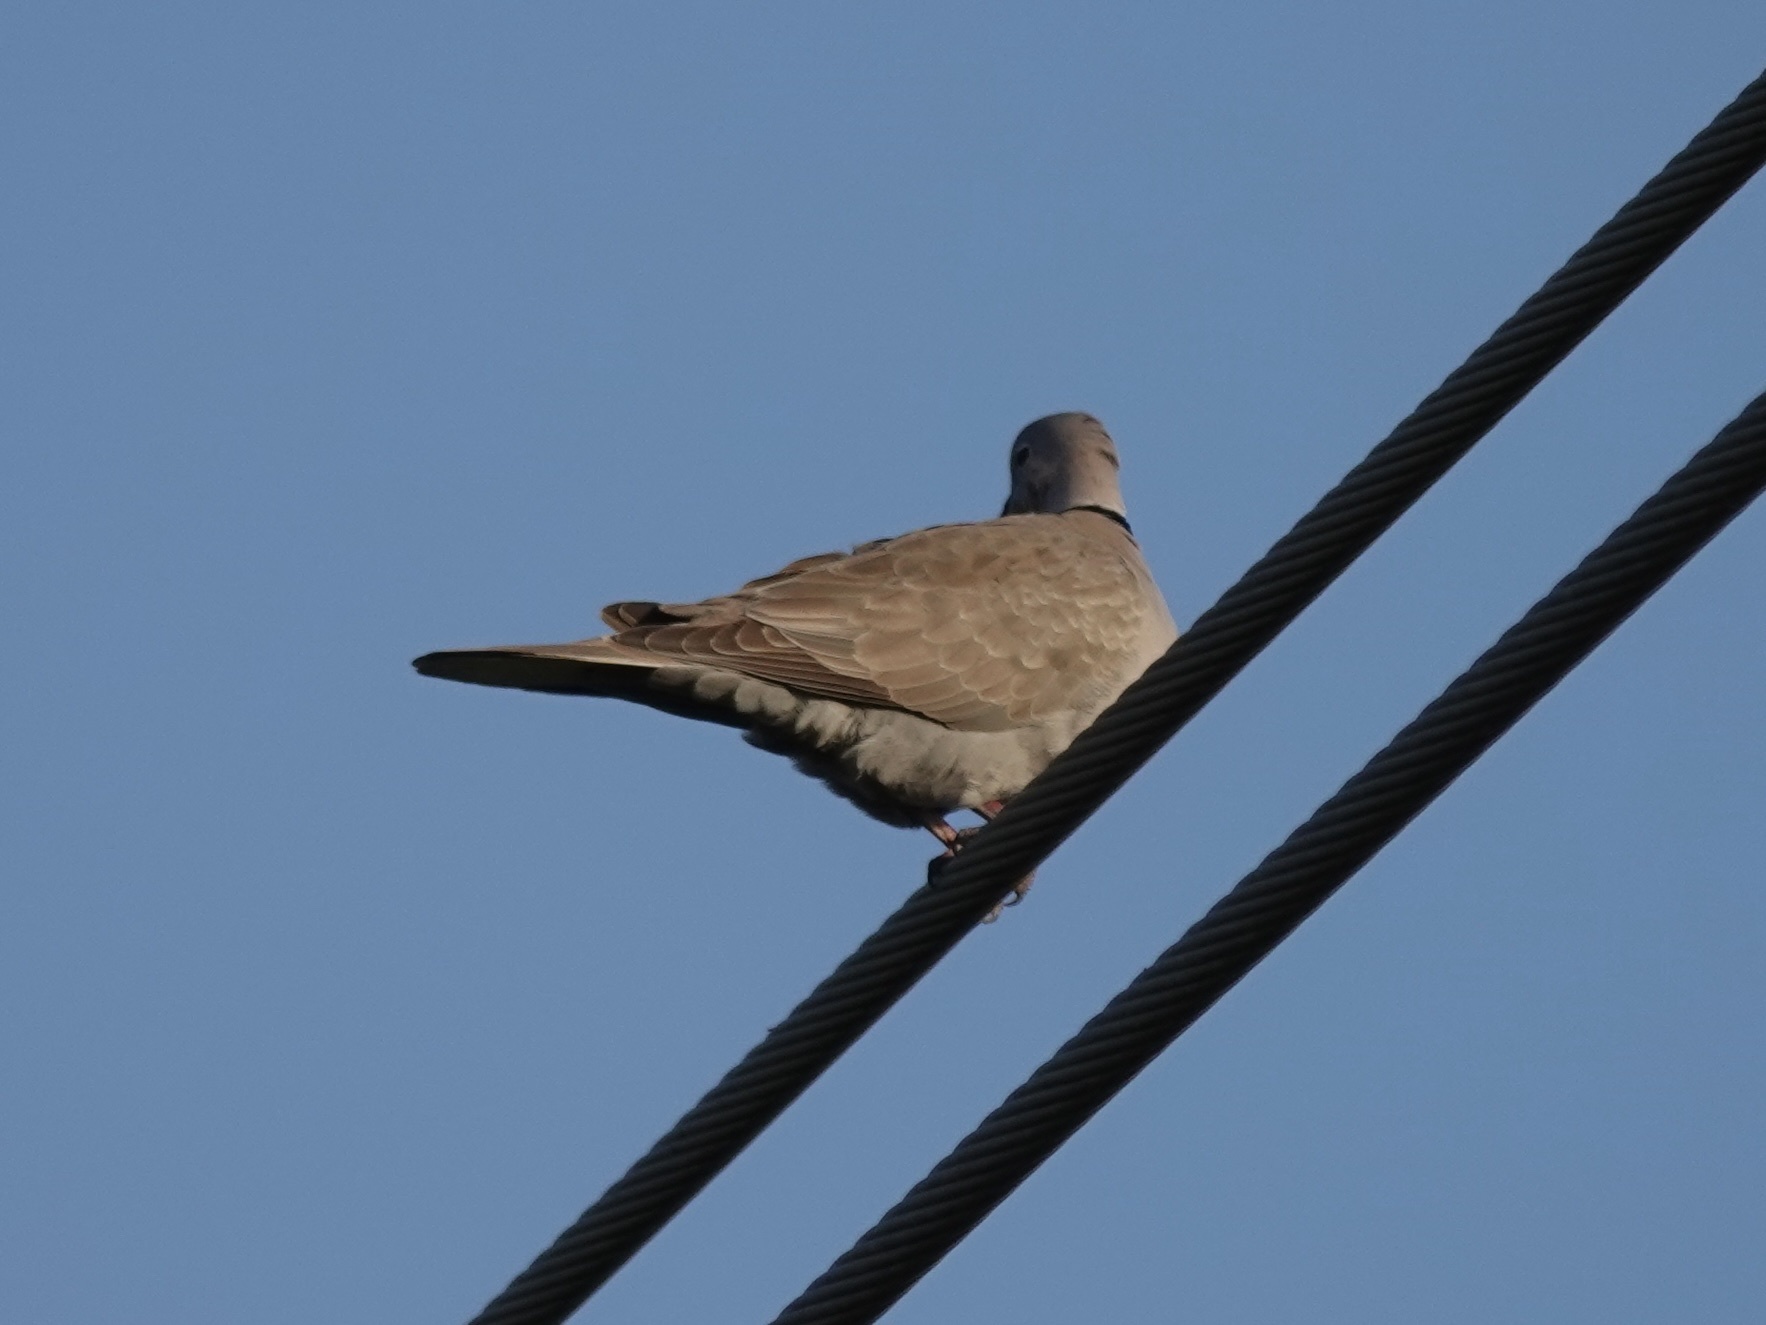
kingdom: Animalia
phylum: Chordata
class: Aves
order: Columbiformes
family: Columbidae
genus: Streptopelia
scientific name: Streptopelia decaocto
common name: Eurasian collared dove
